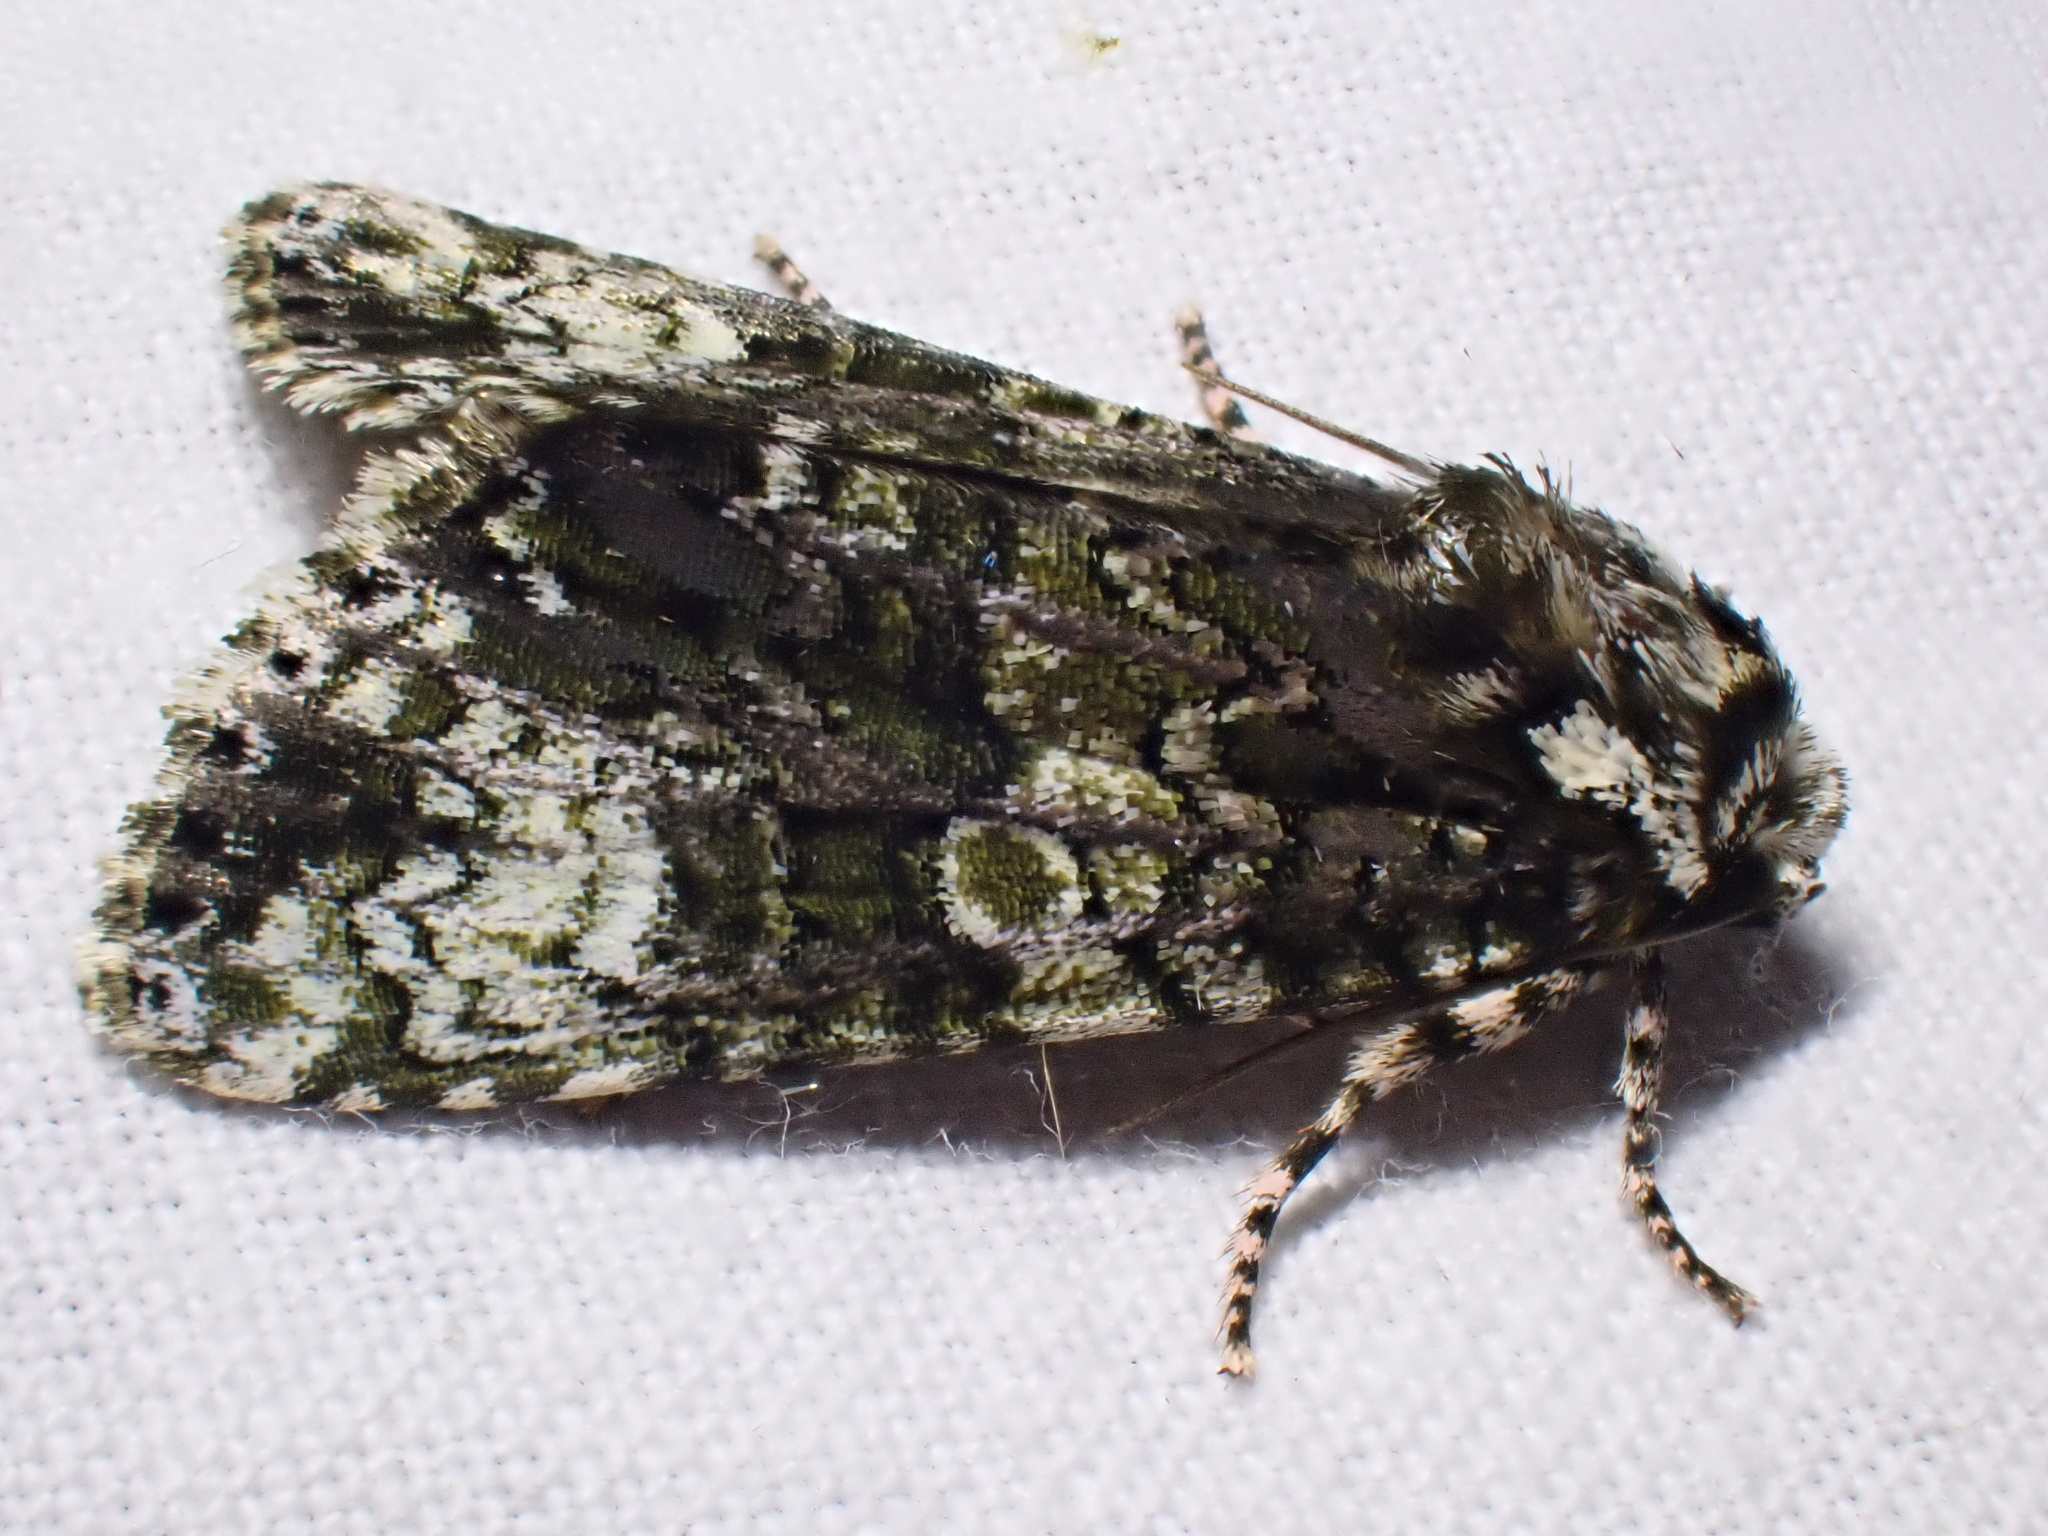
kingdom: Animalia
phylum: Arthropoda
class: Insecta
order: Lepidoptera
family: Noctuidae
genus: Craniophora
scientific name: Craniophora ligustri
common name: Coronet
